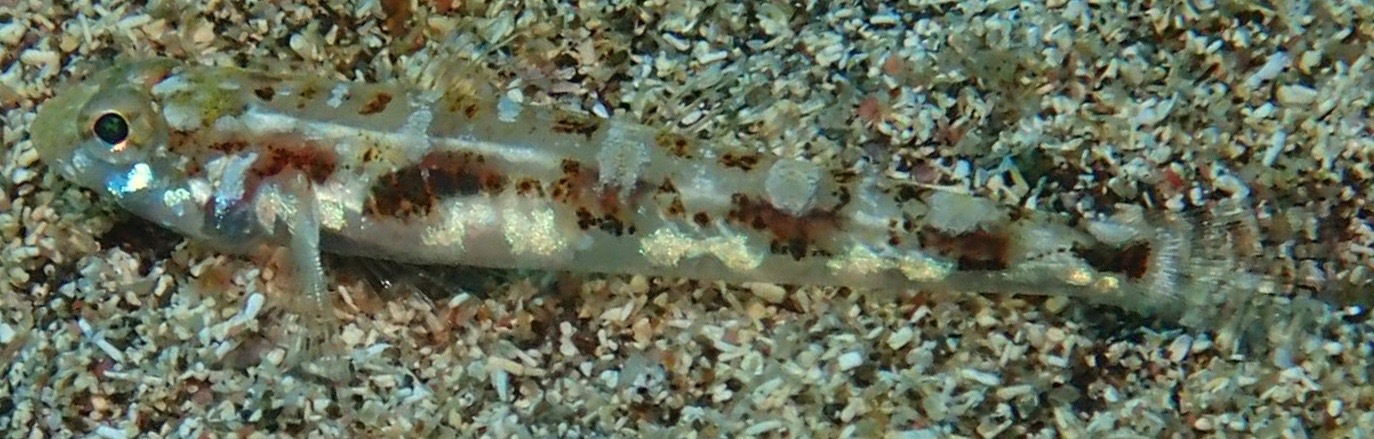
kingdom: Animalia
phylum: Chordata
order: Perciformes
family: Gobiidae
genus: Pomatoschistus
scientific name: Pomatoschistus pictus
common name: Painted goby
